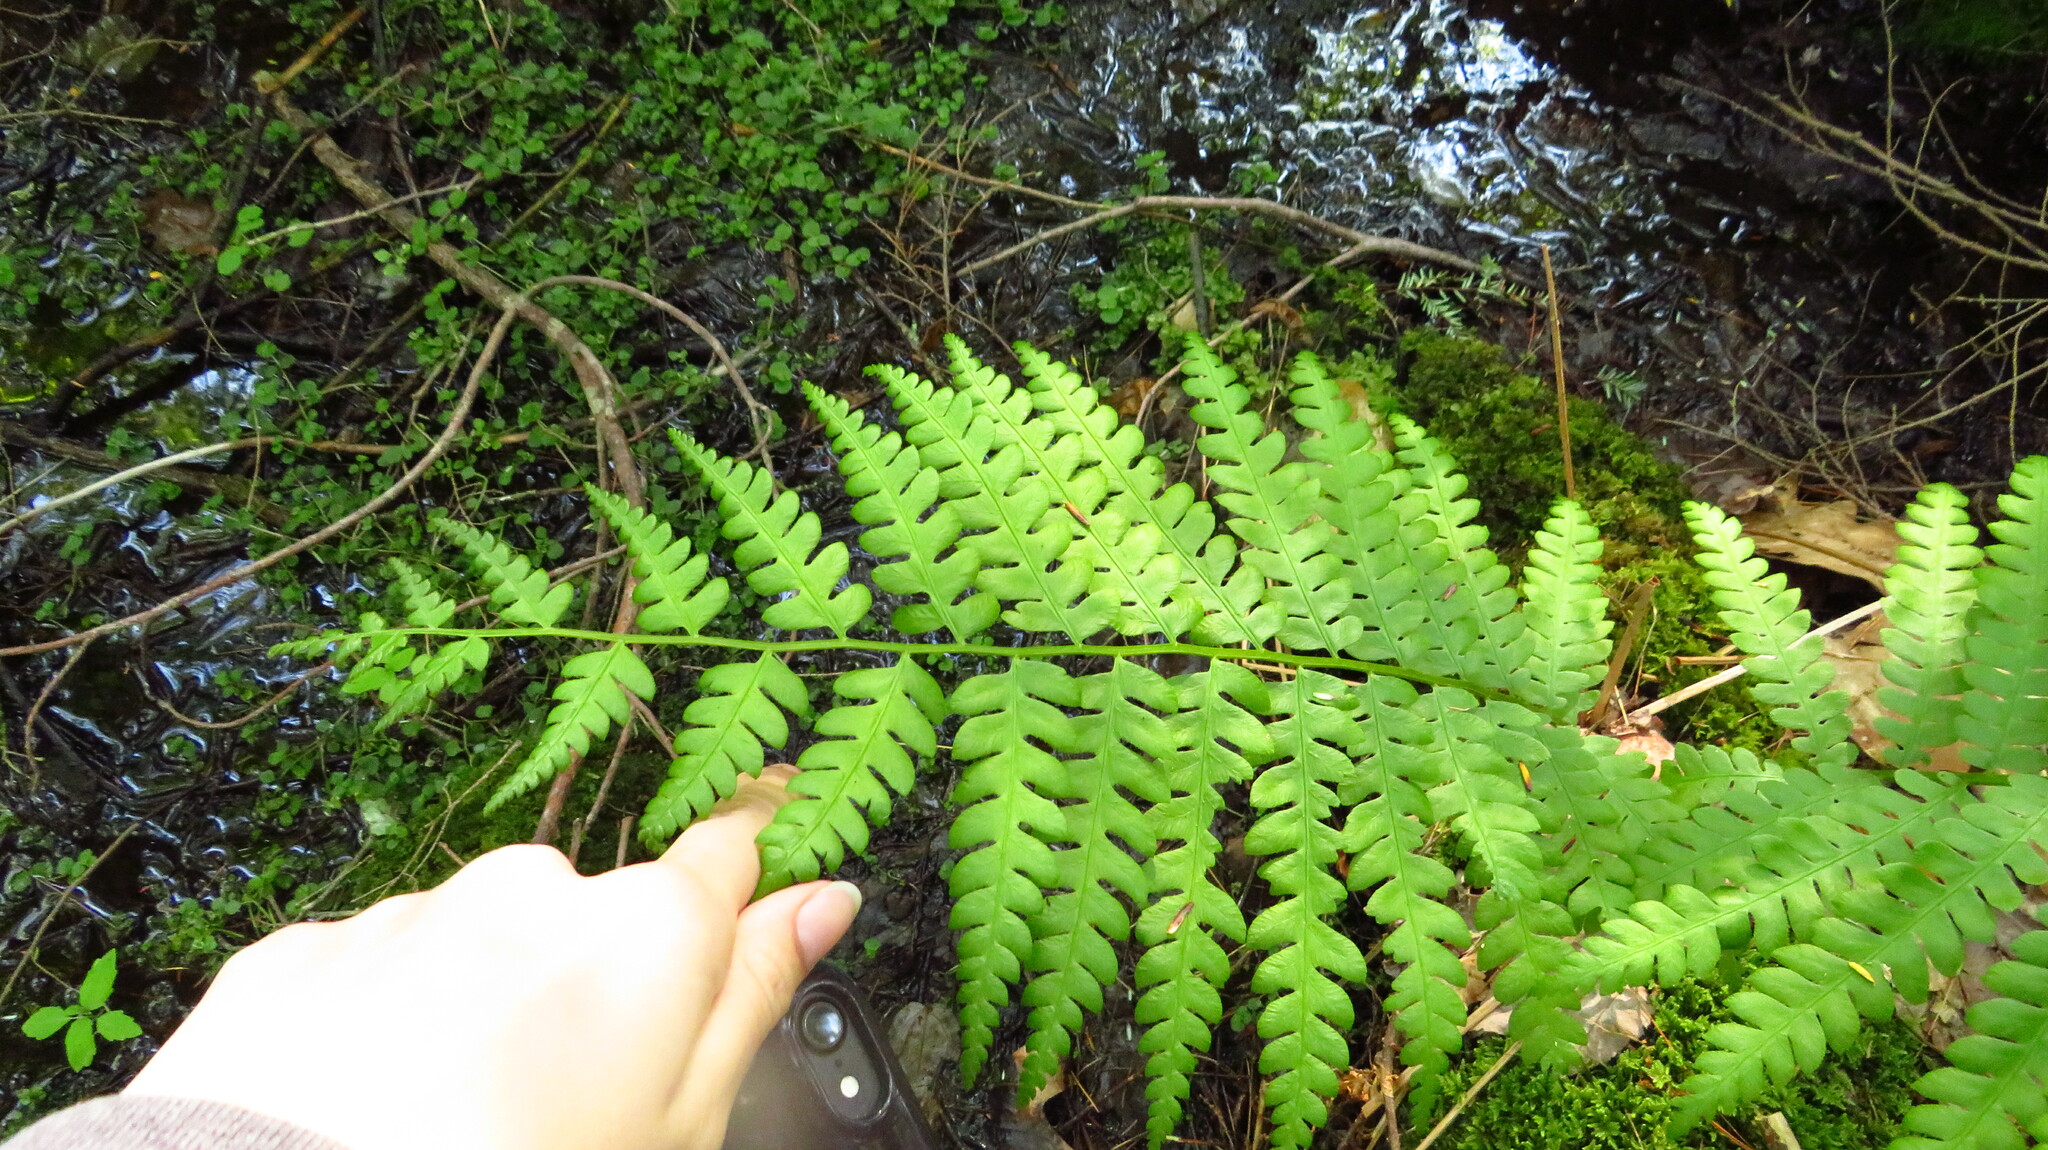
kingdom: Plantae
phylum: Tracheophyta
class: Polypodiopsida
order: Osmundales
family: Osmundaceae
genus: Osmundastrum
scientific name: Osmundastrum cinnamomeum
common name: Cinnamon fern
